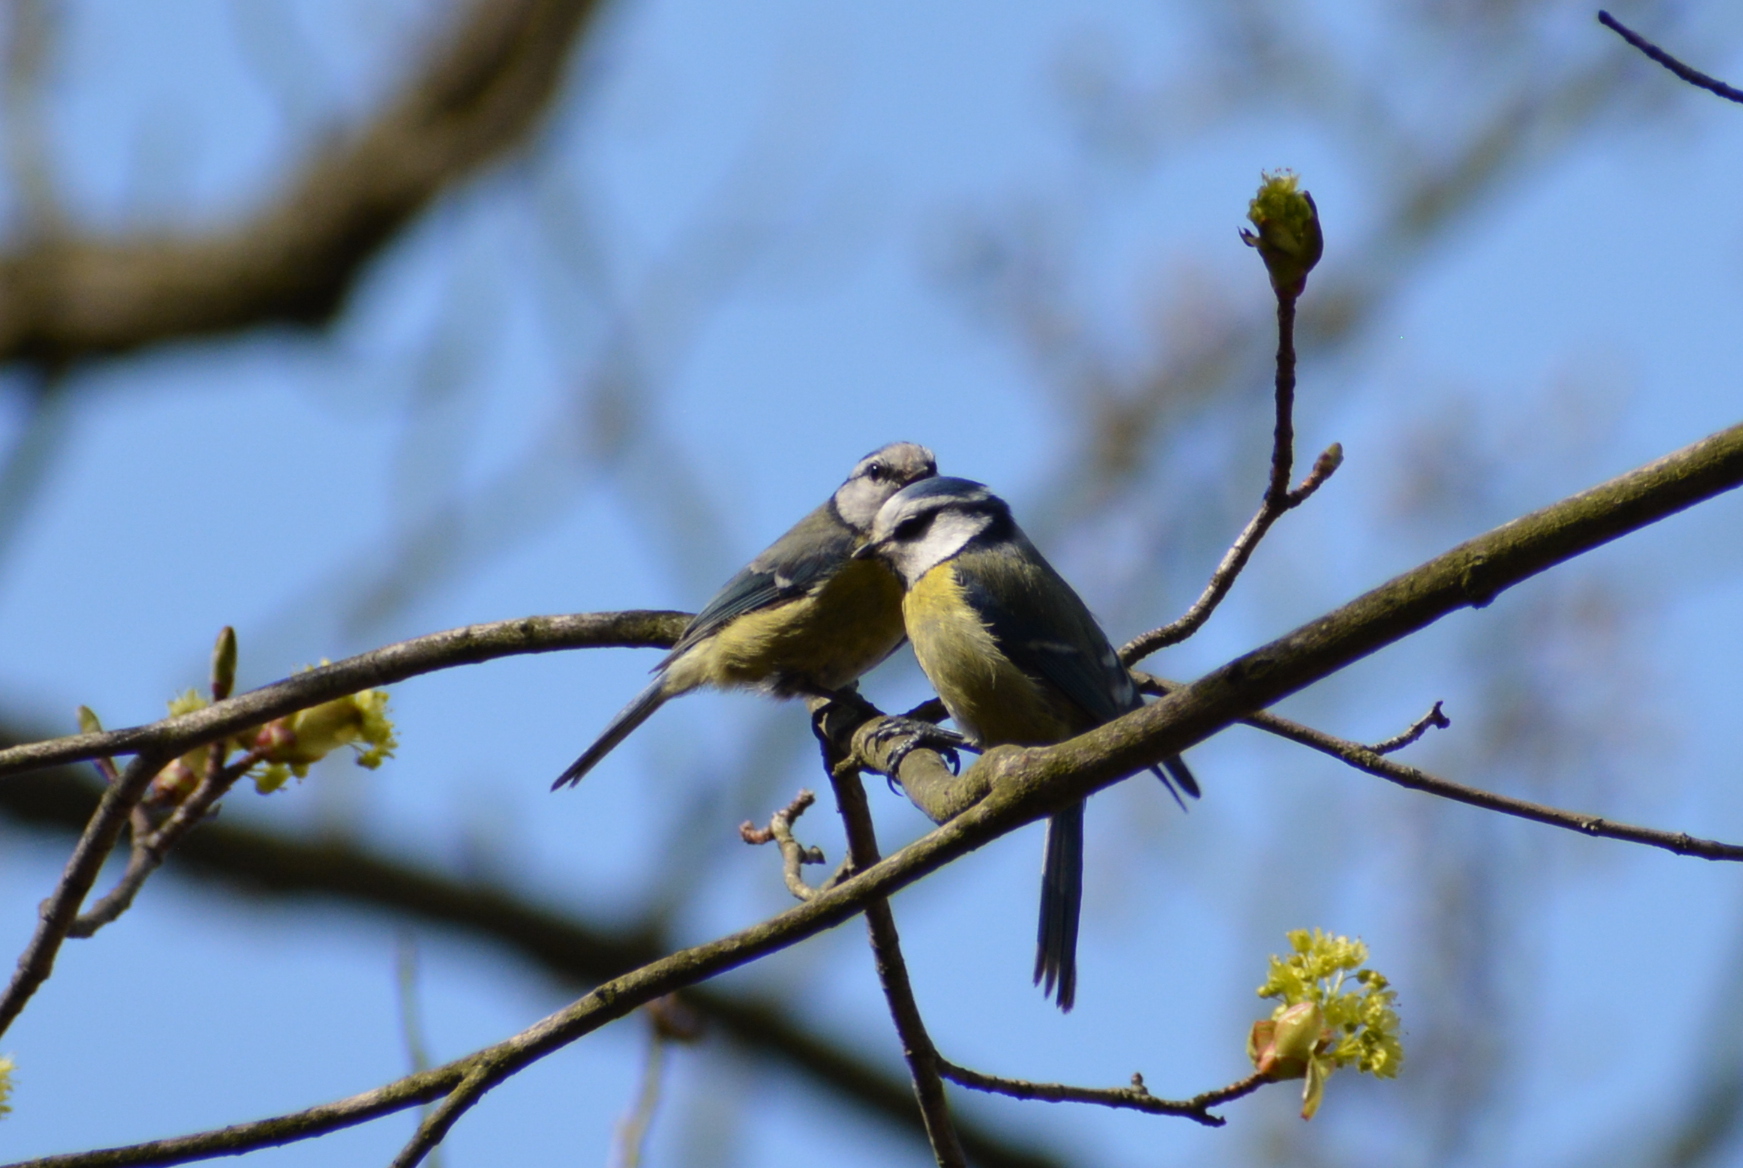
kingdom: Animalia
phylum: Chordata
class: Aves
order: Passeriformes
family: Paridae
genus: Cyanistes
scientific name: Cyanistes caeruleus
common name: Eurasian blue tit
